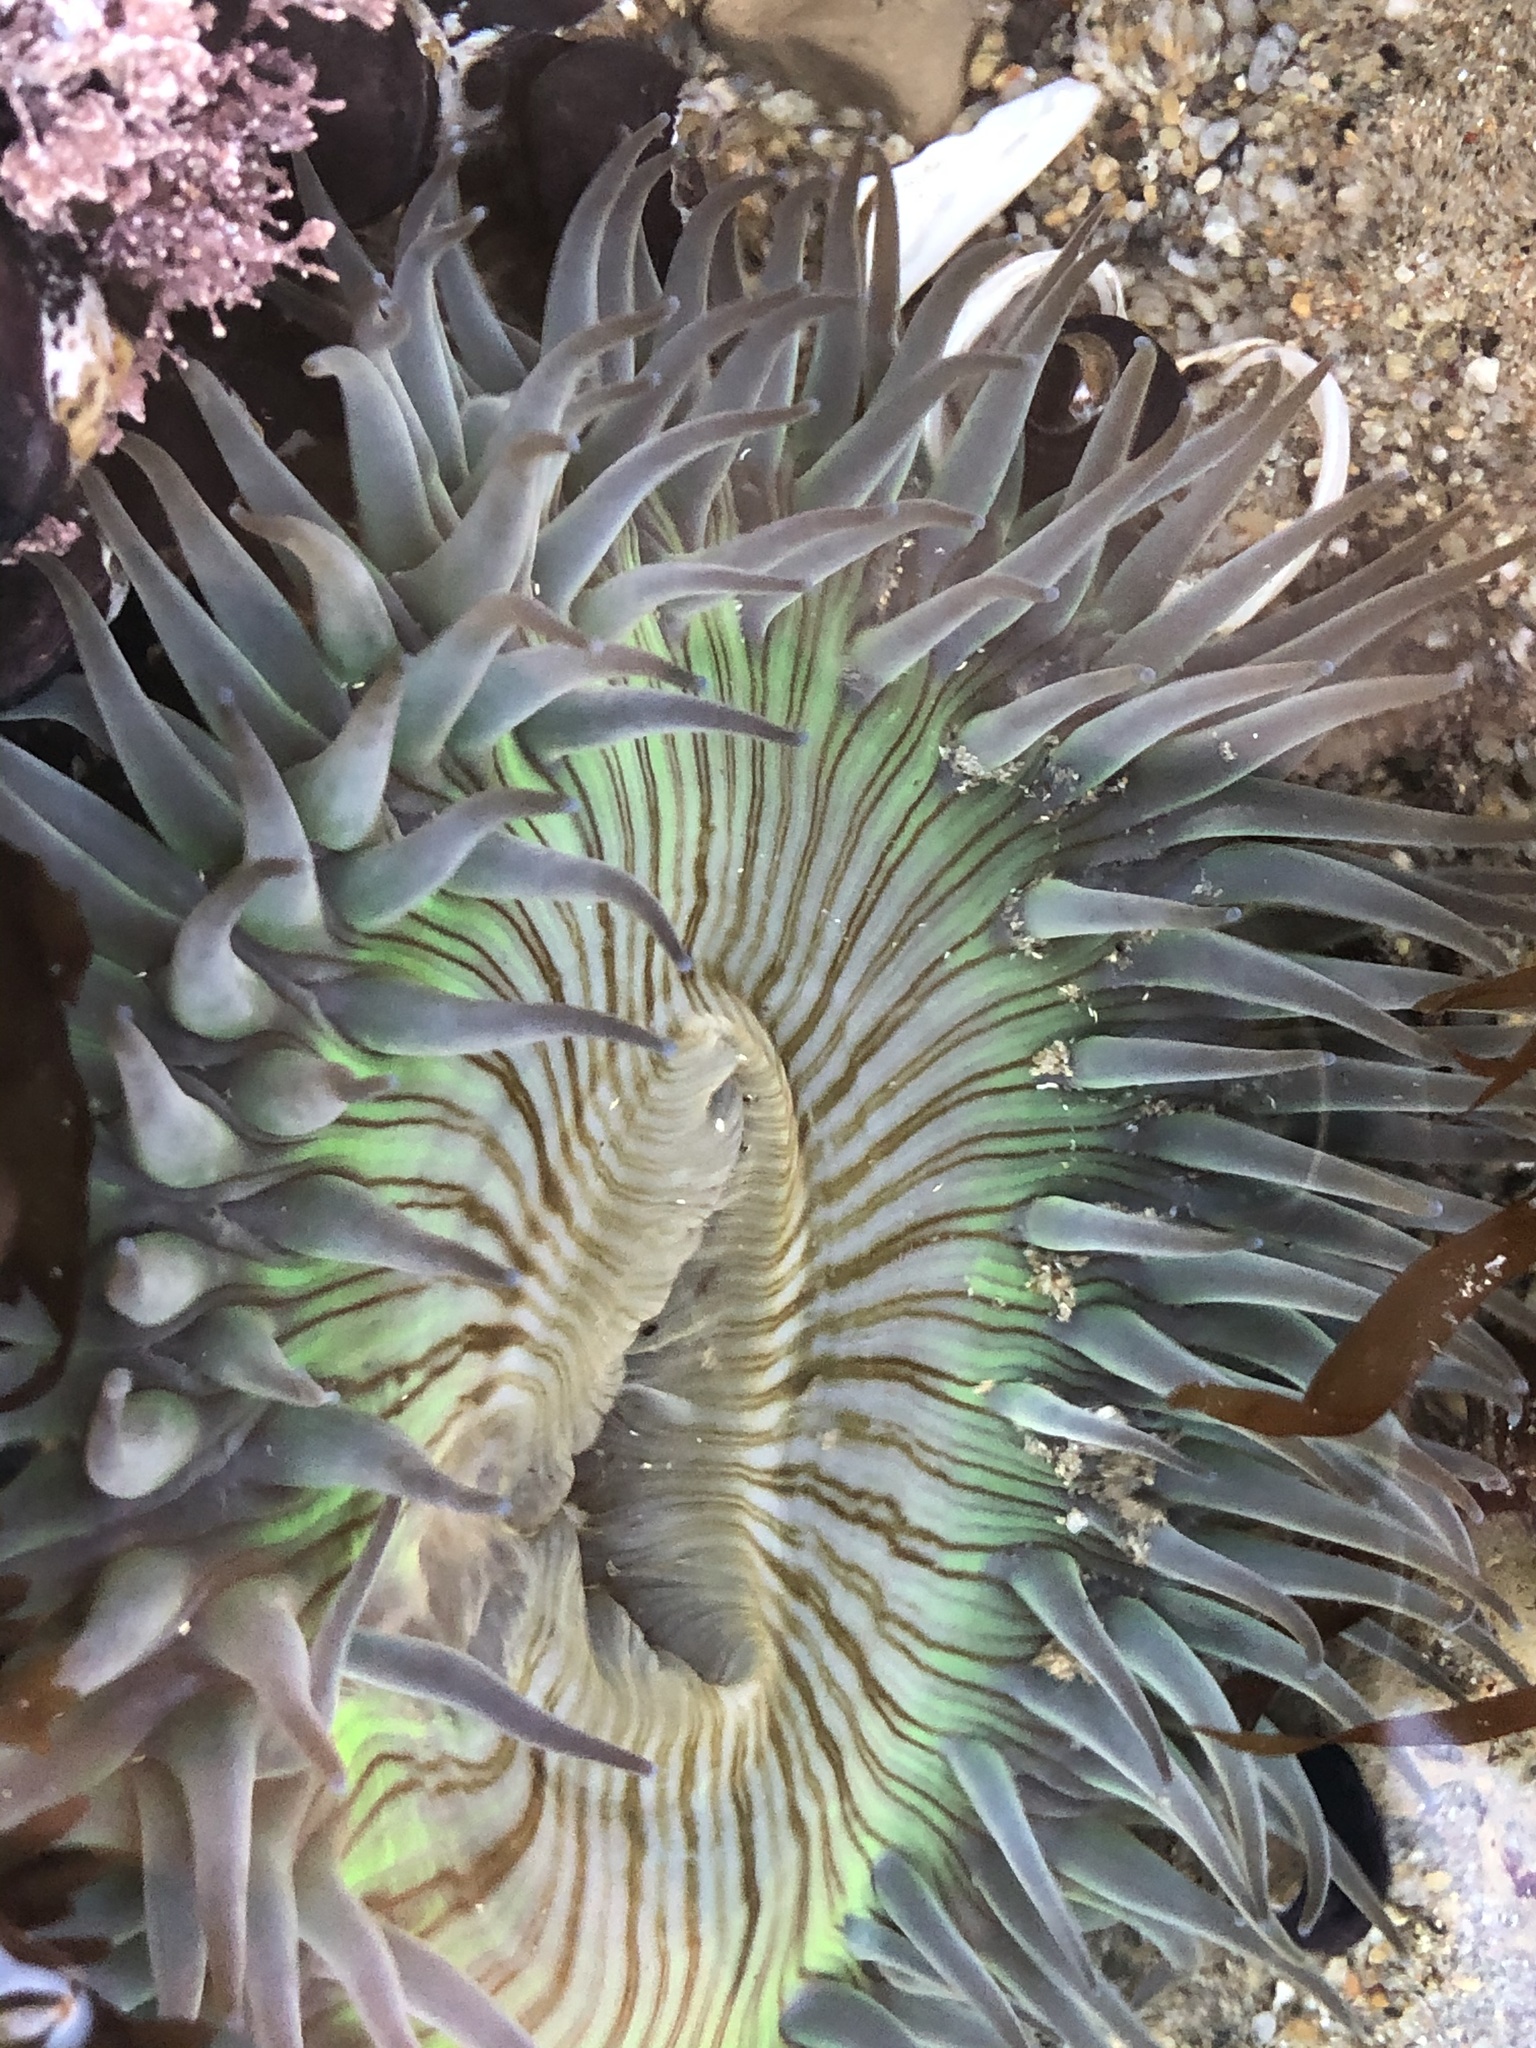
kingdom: Animalia
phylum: Cnidaria
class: Anthozoa
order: Actiniaria
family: Actiniidae
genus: Anthopleura
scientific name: Anthopleura sola
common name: Sun anemone
